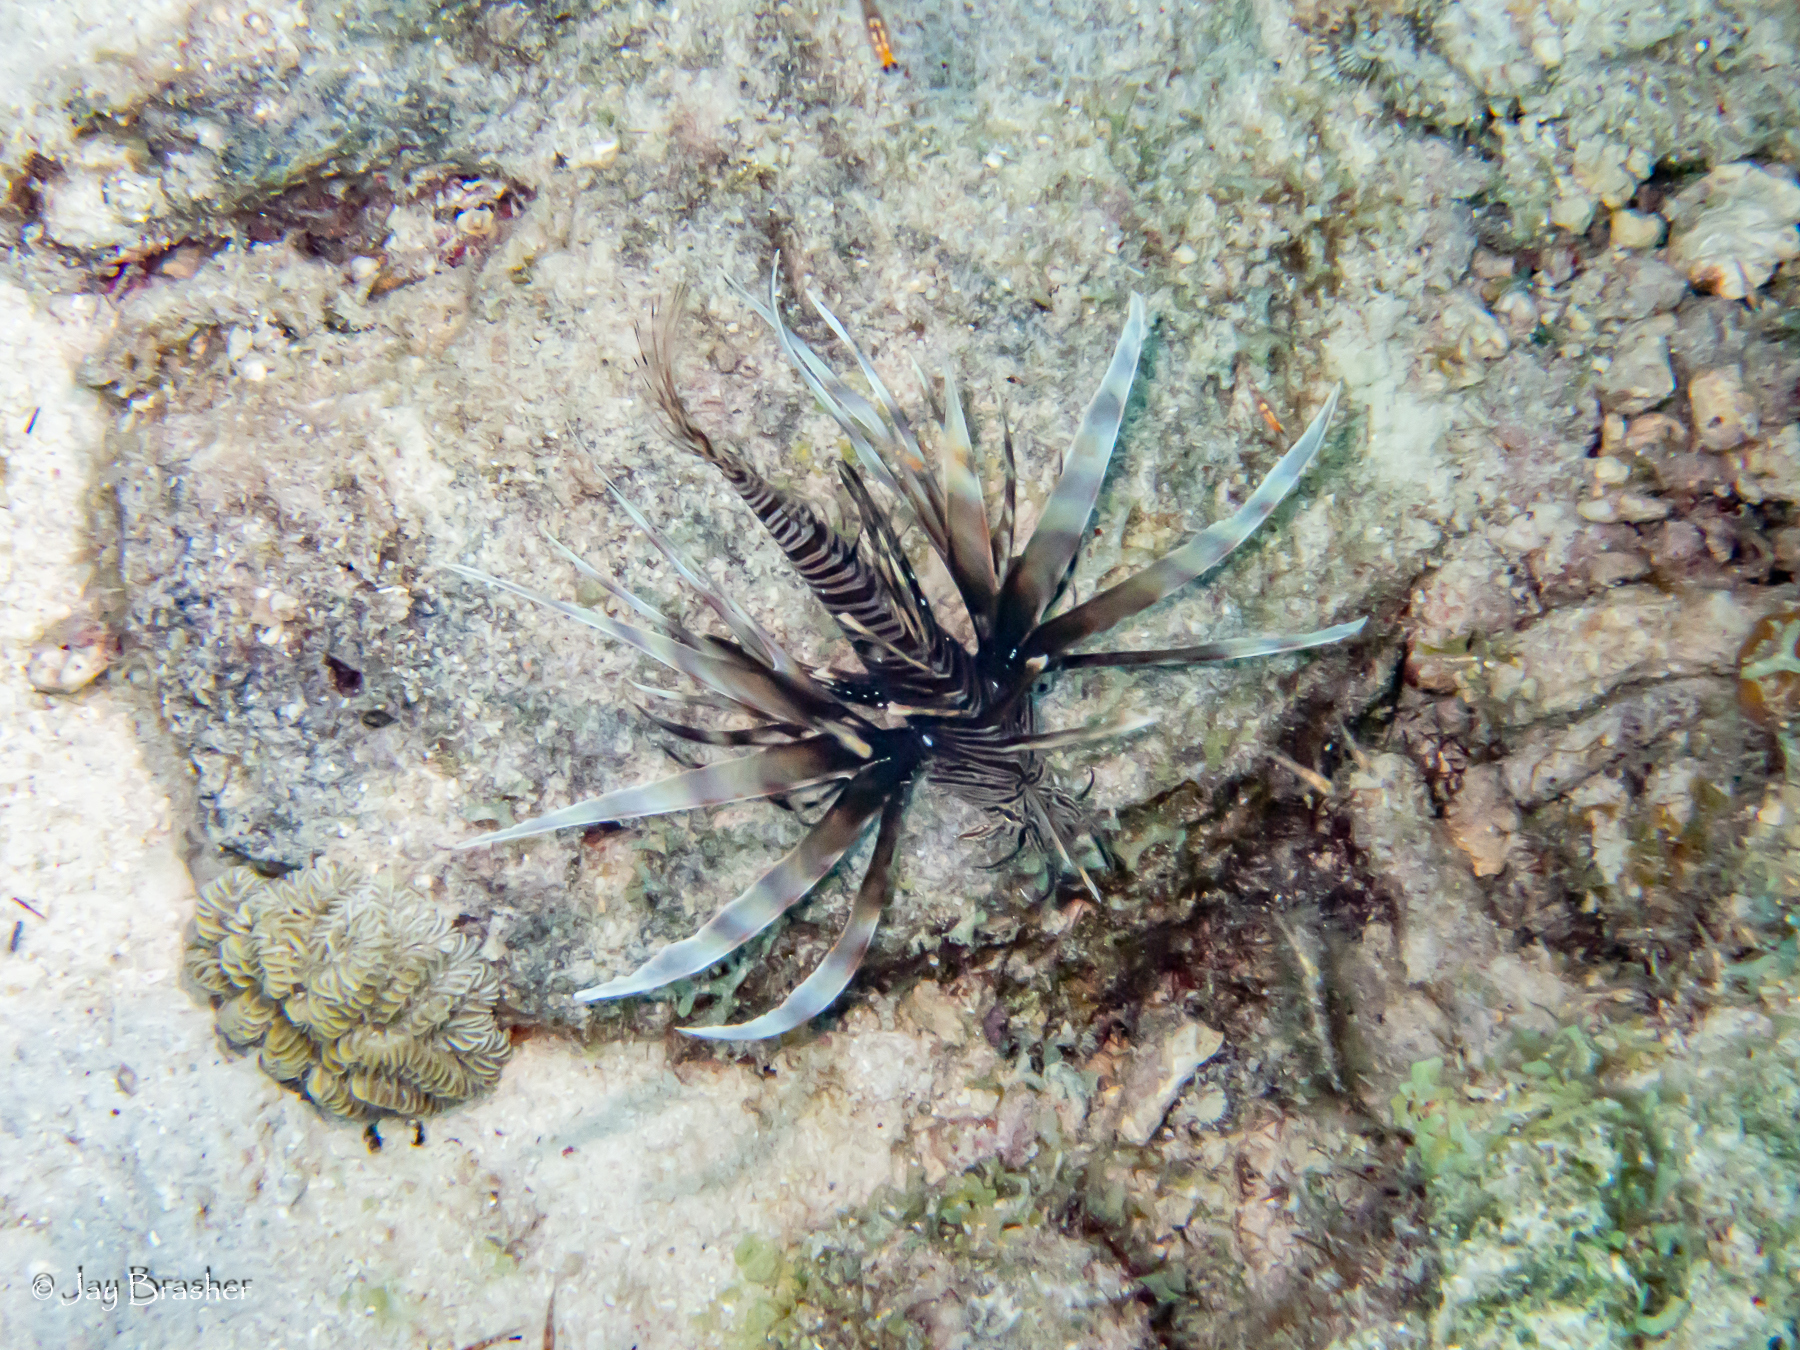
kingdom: Animalia
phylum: Chordata
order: Scorpaeniformes
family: Scorpaenidae
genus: Pterois
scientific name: Pterois volitans
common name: Lionfish
